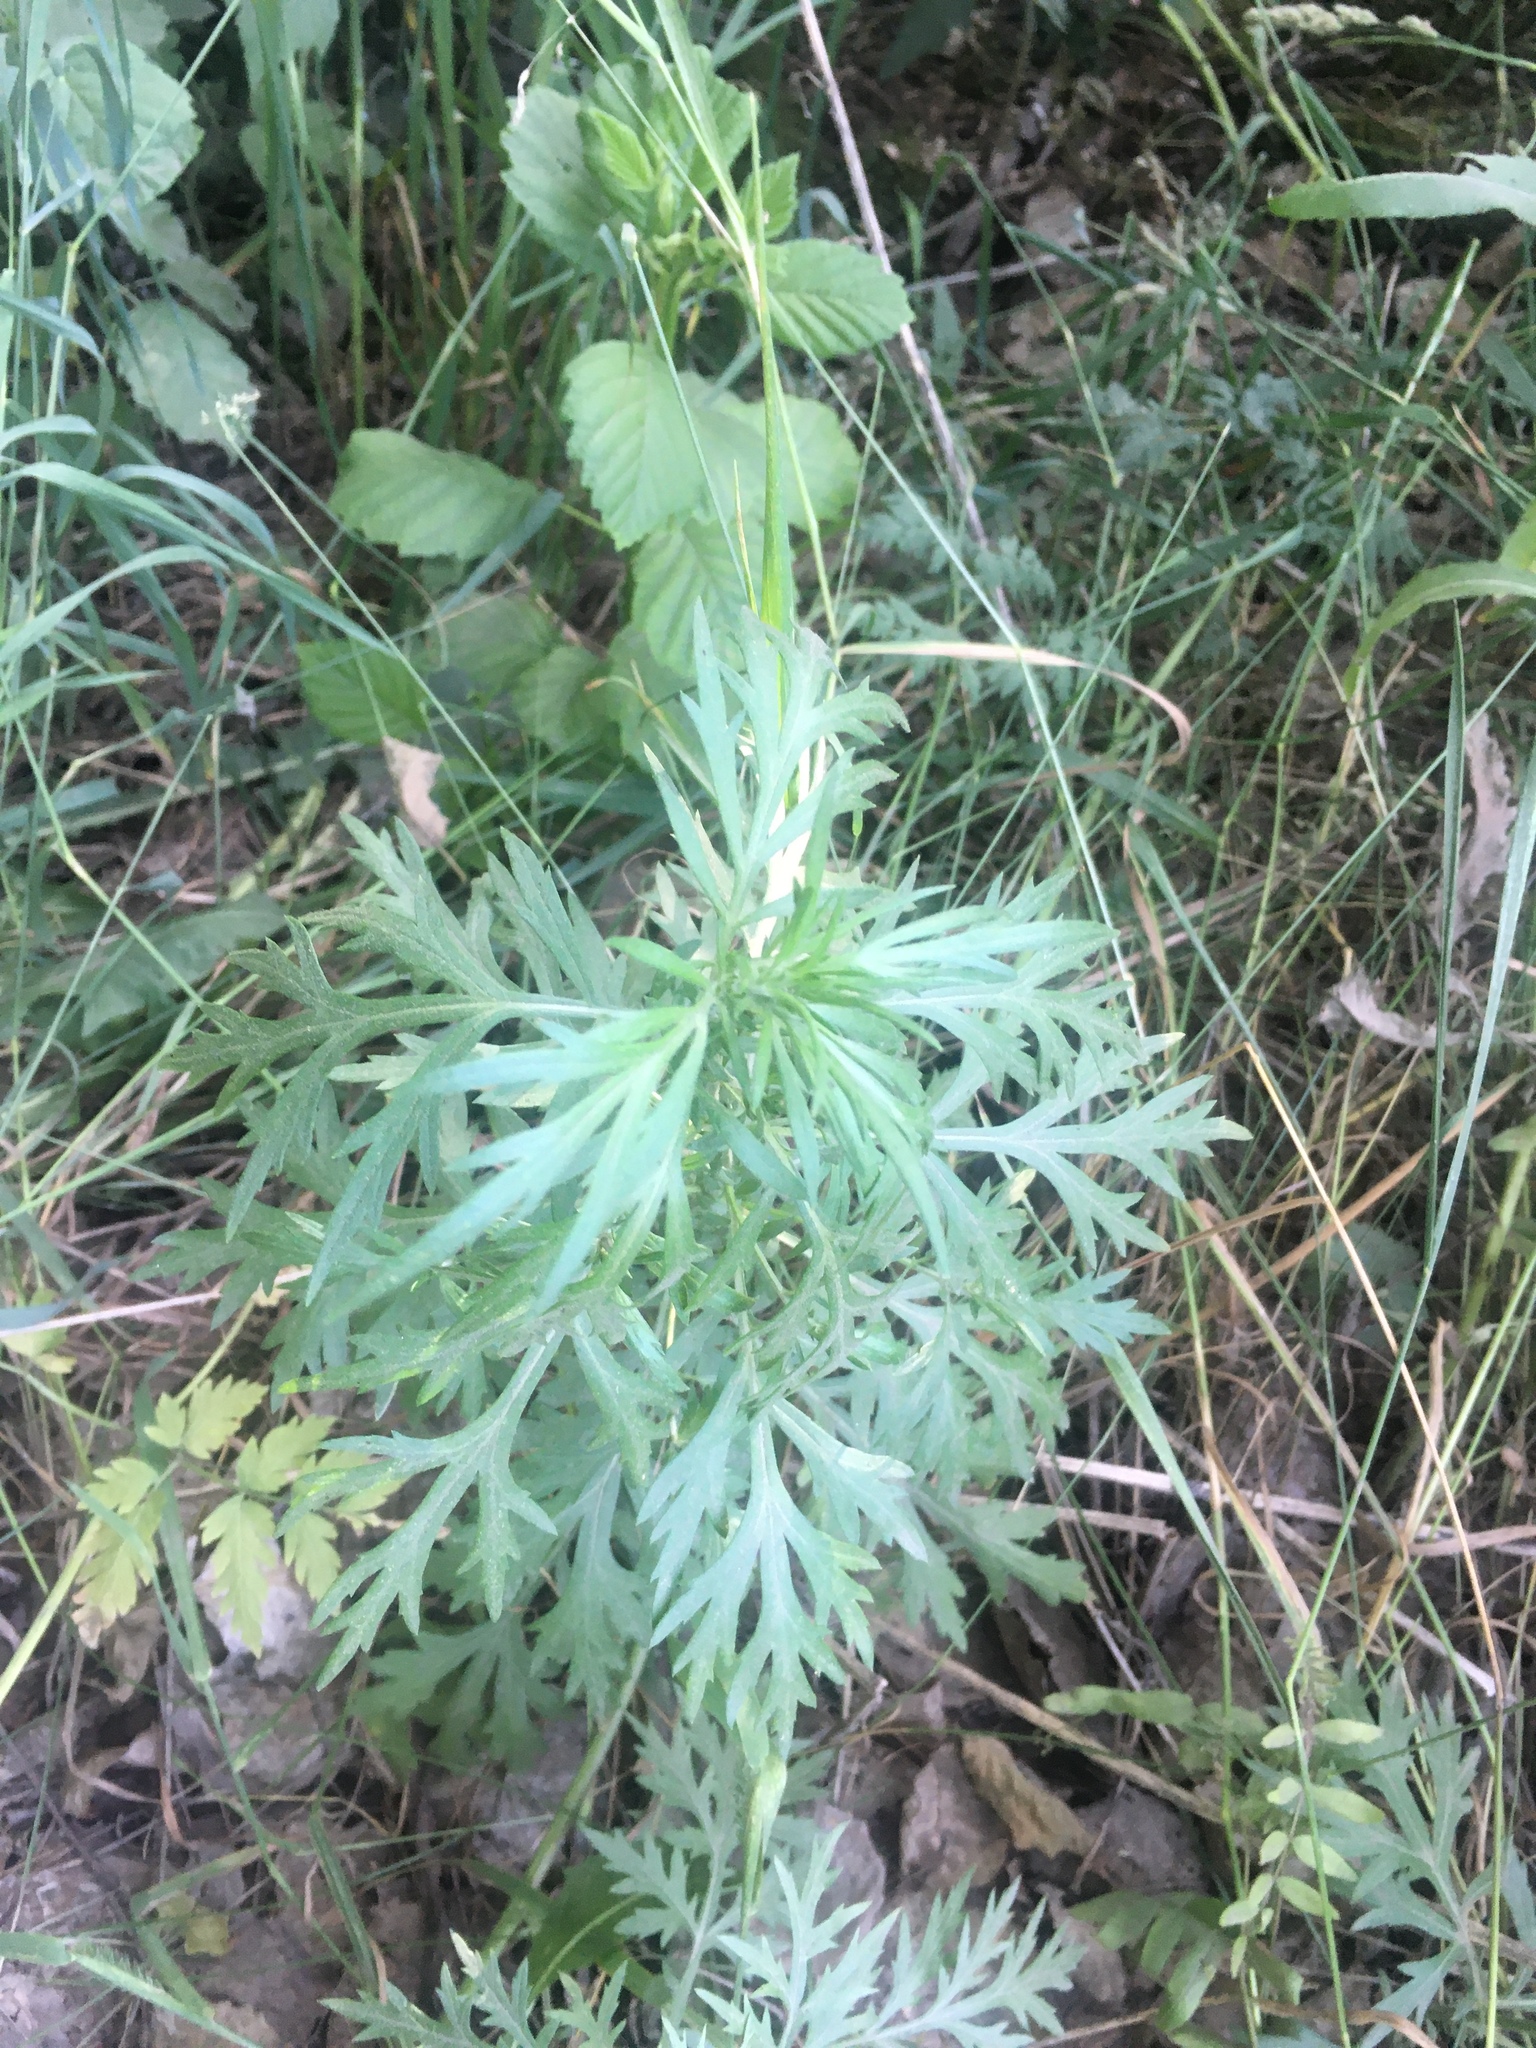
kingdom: Plantae
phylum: Tracheophyta
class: Magnoliopsida
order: Asterales
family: Asteraceae
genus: Artemisia
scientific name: Artemisia vulgaris
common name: Mugwort
